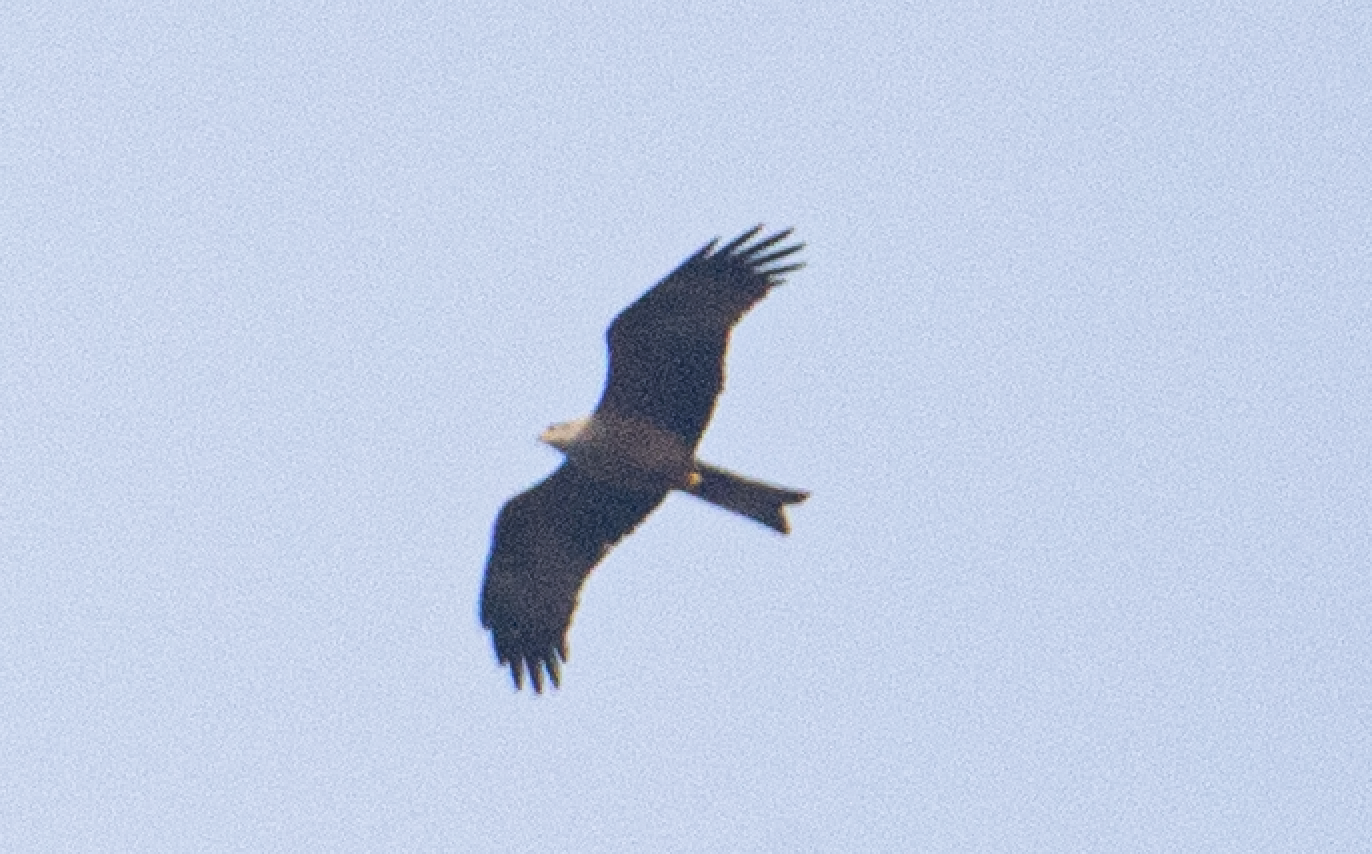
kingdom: Animalia
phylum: Chordata
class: Aves
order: Accipitriformes
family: Accipitridae
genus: Milvus
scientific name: Milvus migrans
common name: Black kite
